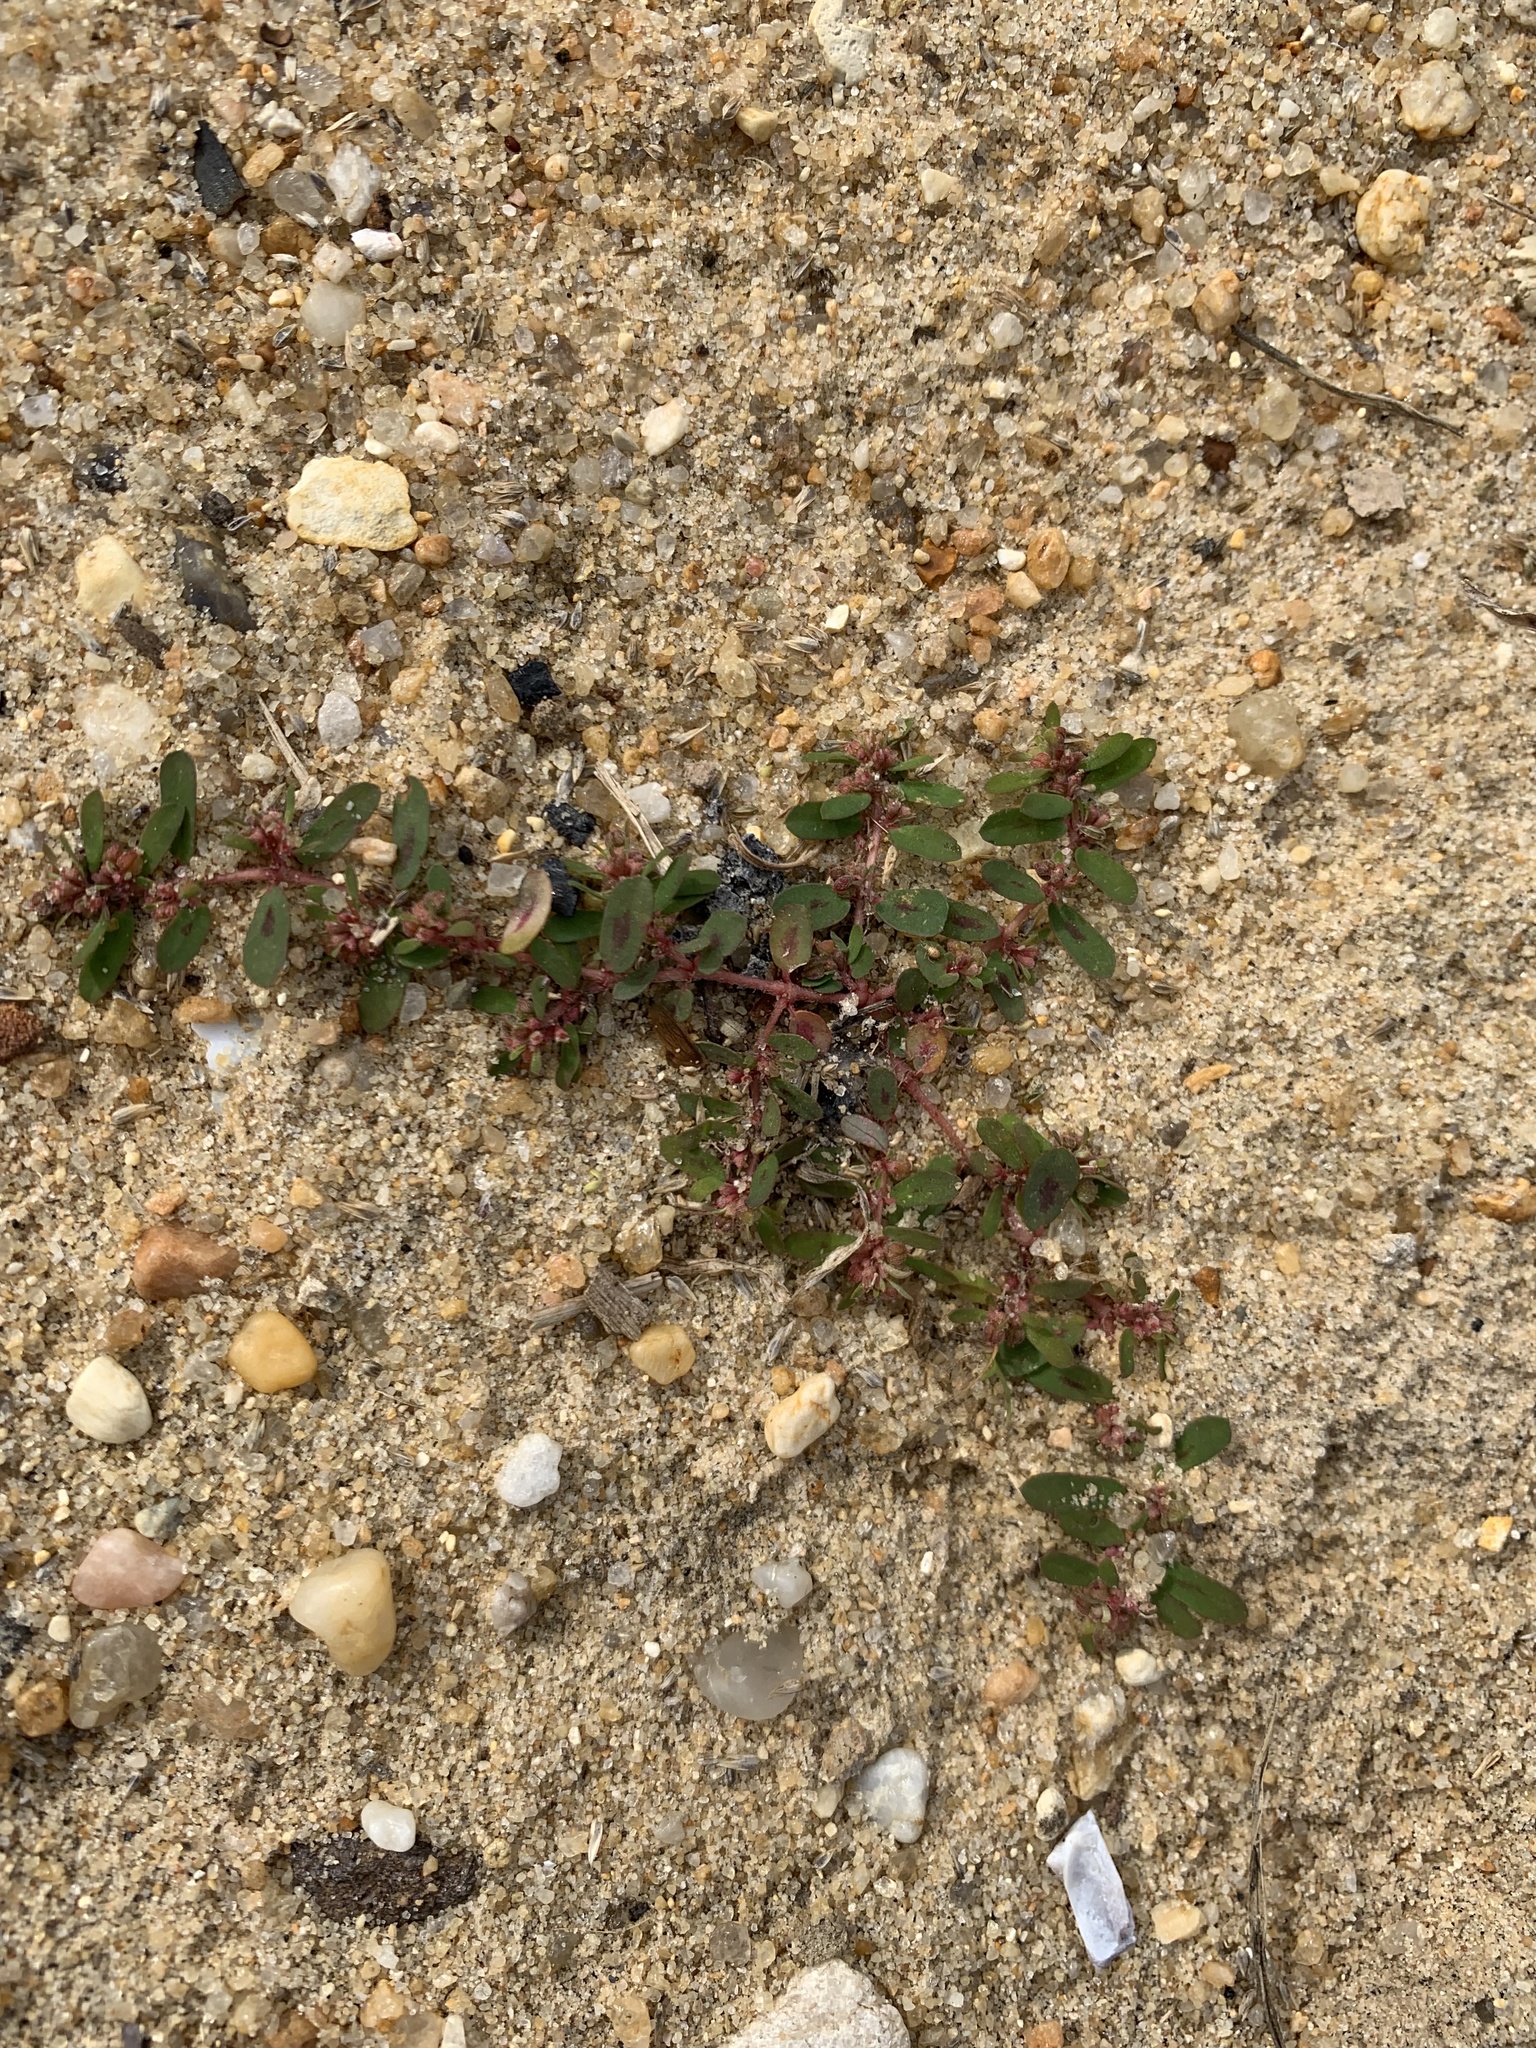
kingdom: Plantae
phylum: Tracheophyta
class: Magnoliopsida
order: Malpighiales
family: Euphorbiaceae
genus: Euphorbia
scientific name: Euphorbia maculata
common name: Spotted spurge
